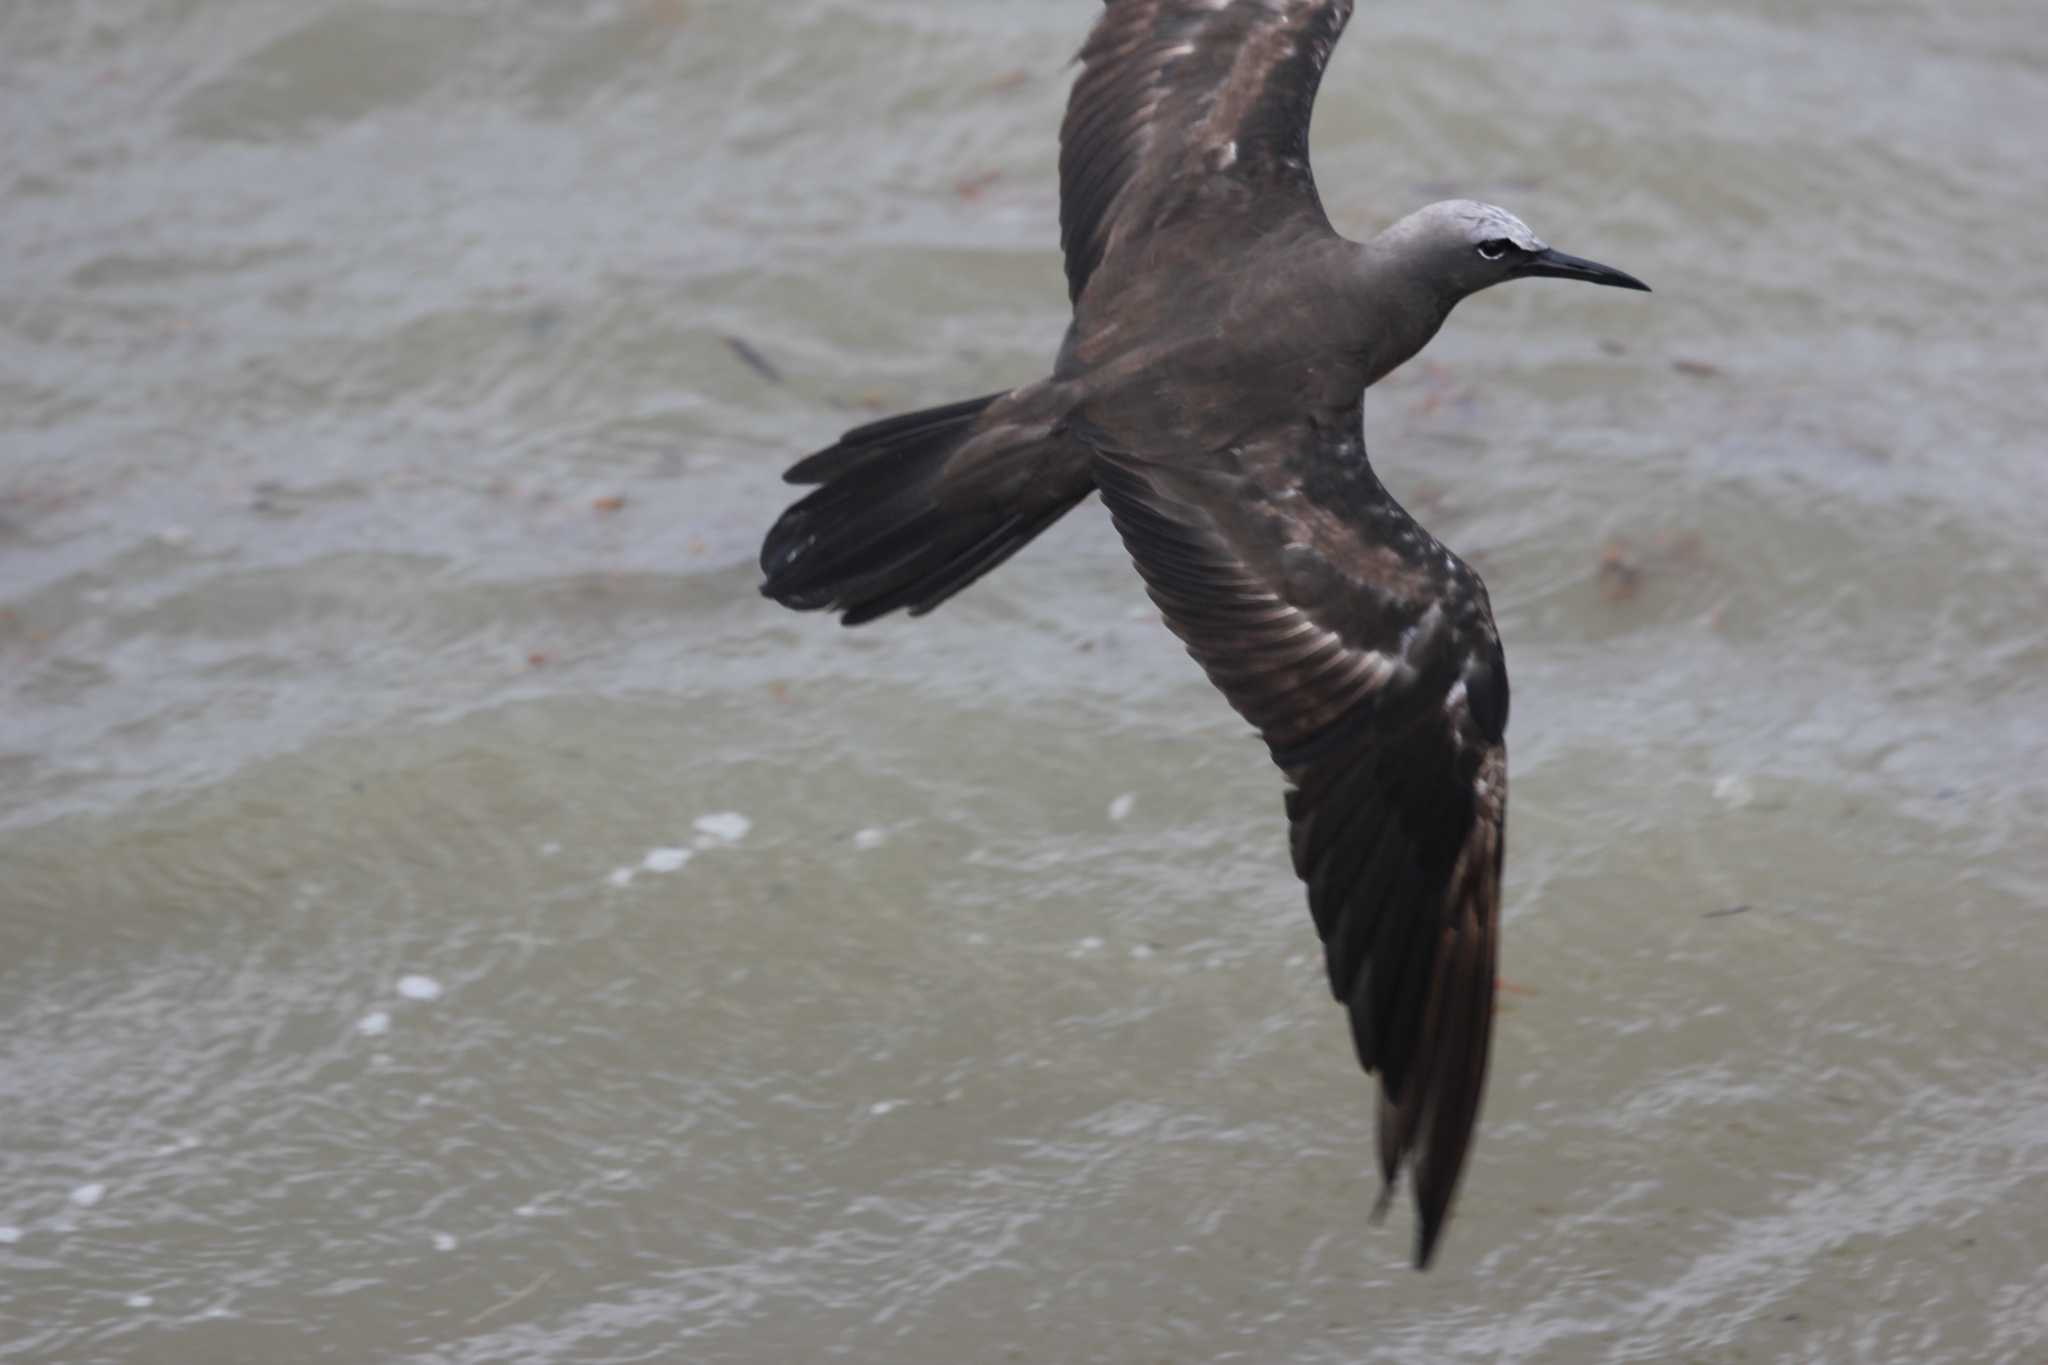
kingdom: Animalia
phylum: Chordata
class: Aves
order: Charadriiformes
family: Laridae
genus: Anous
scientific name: Anous stolidus
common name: Brown noddy
